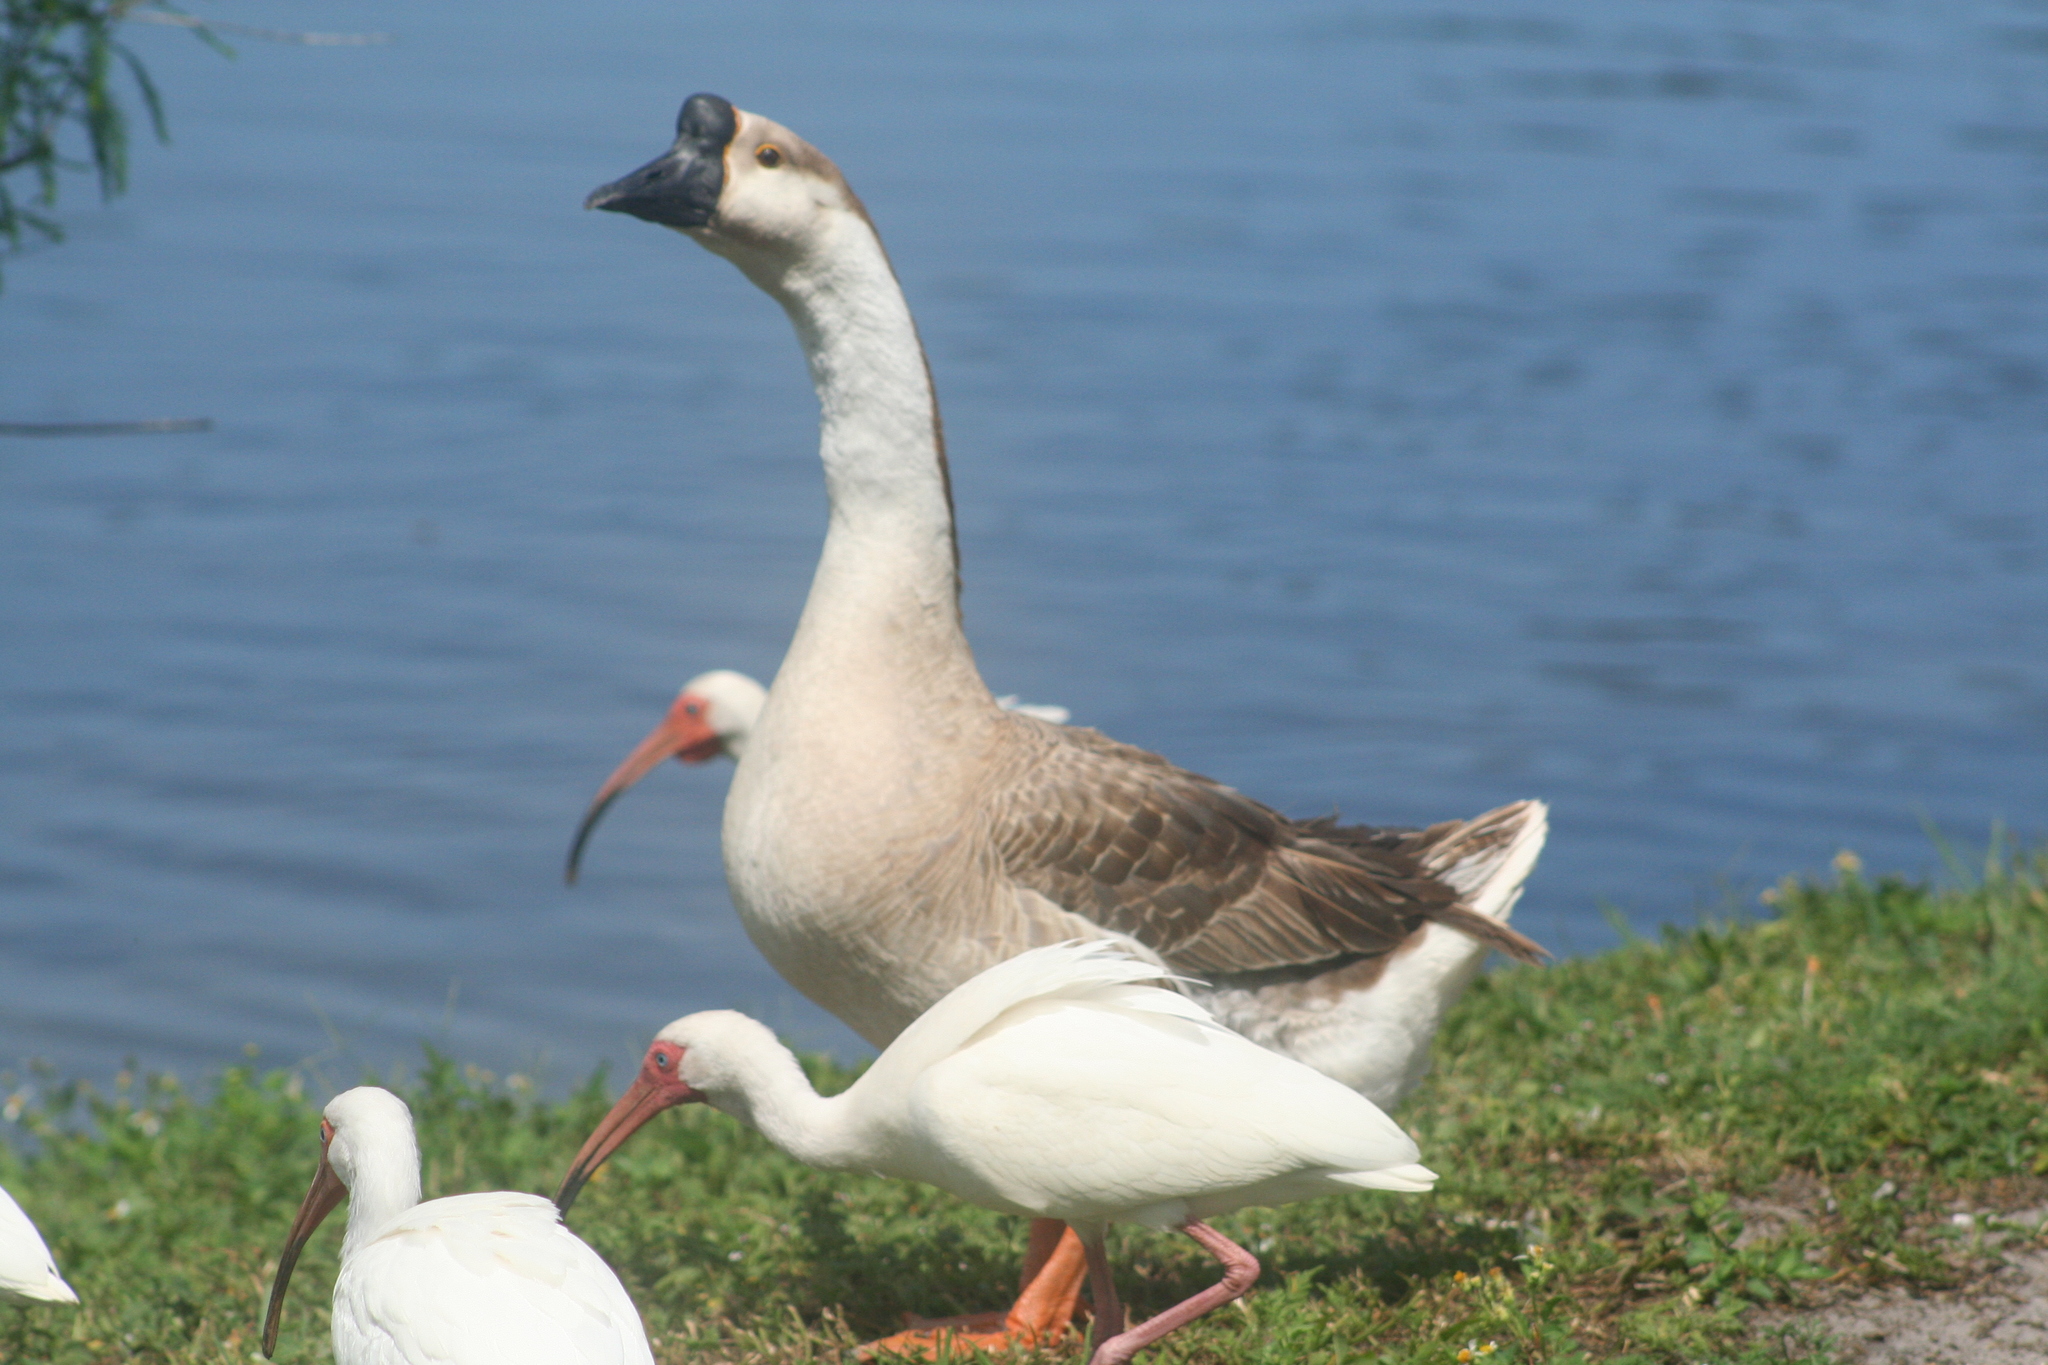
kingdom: Animalia
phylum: Chordata
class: Aves
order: Anseriformes
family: Anatidae
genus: Anser
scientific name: Anser cygnoides
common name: Swan goose
